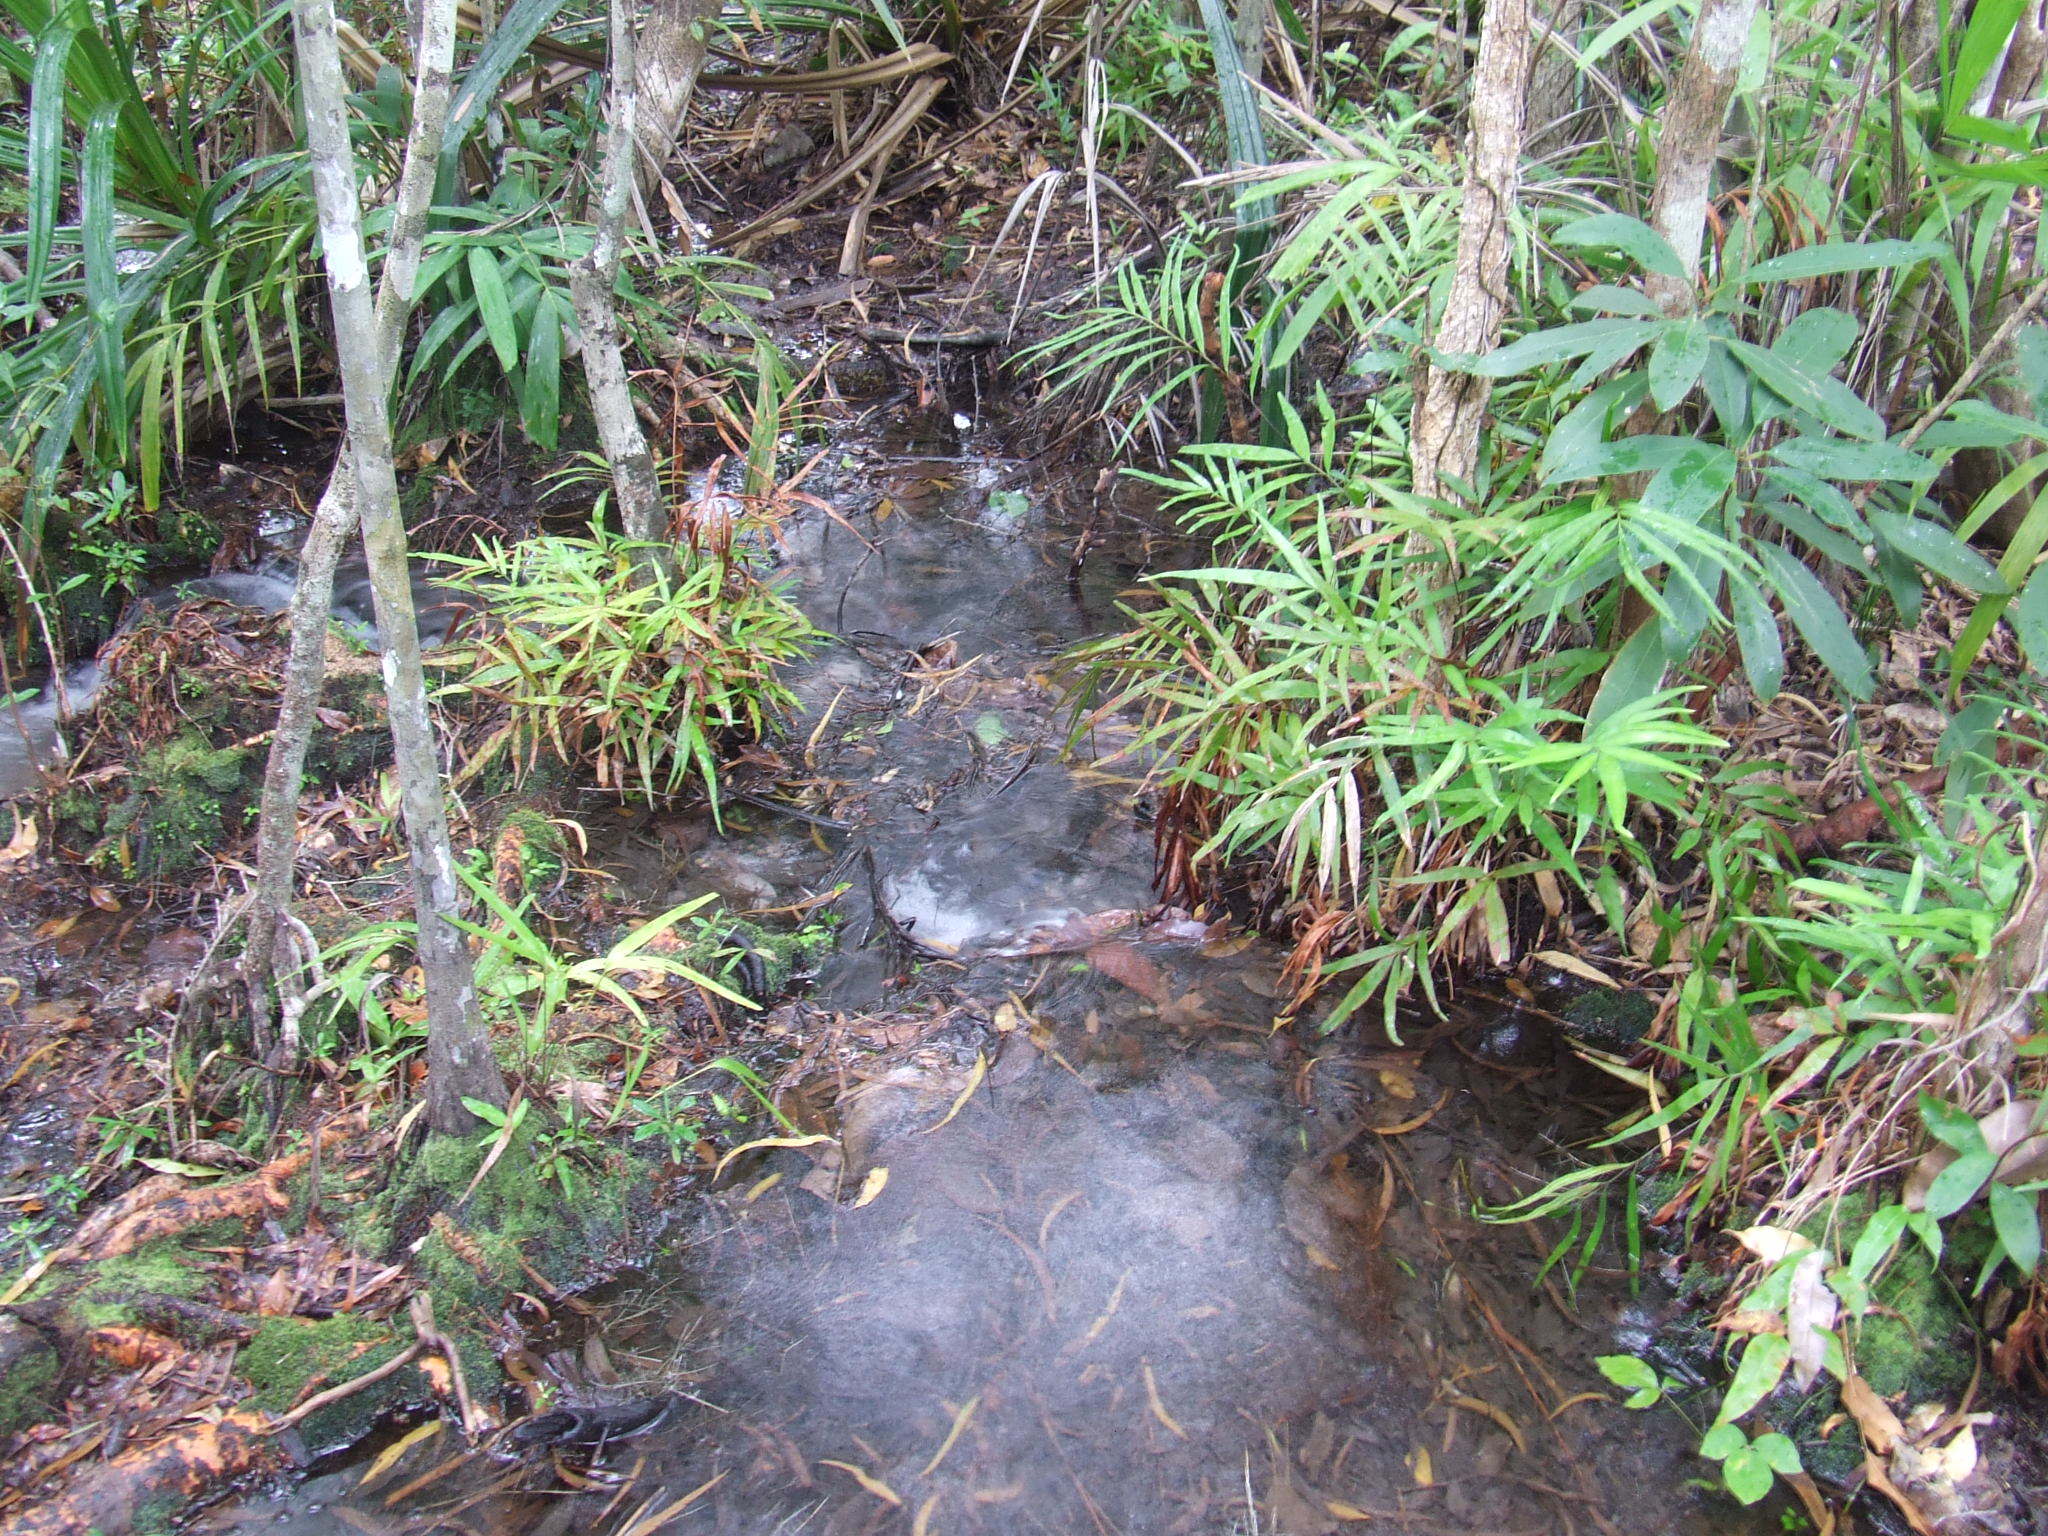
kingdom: Plantae
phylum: Tracheophyta
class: Polypodiopsida
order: Polypodiales
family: Pteridaceae
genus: Taenitis
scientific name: Taenitis blechnoides
